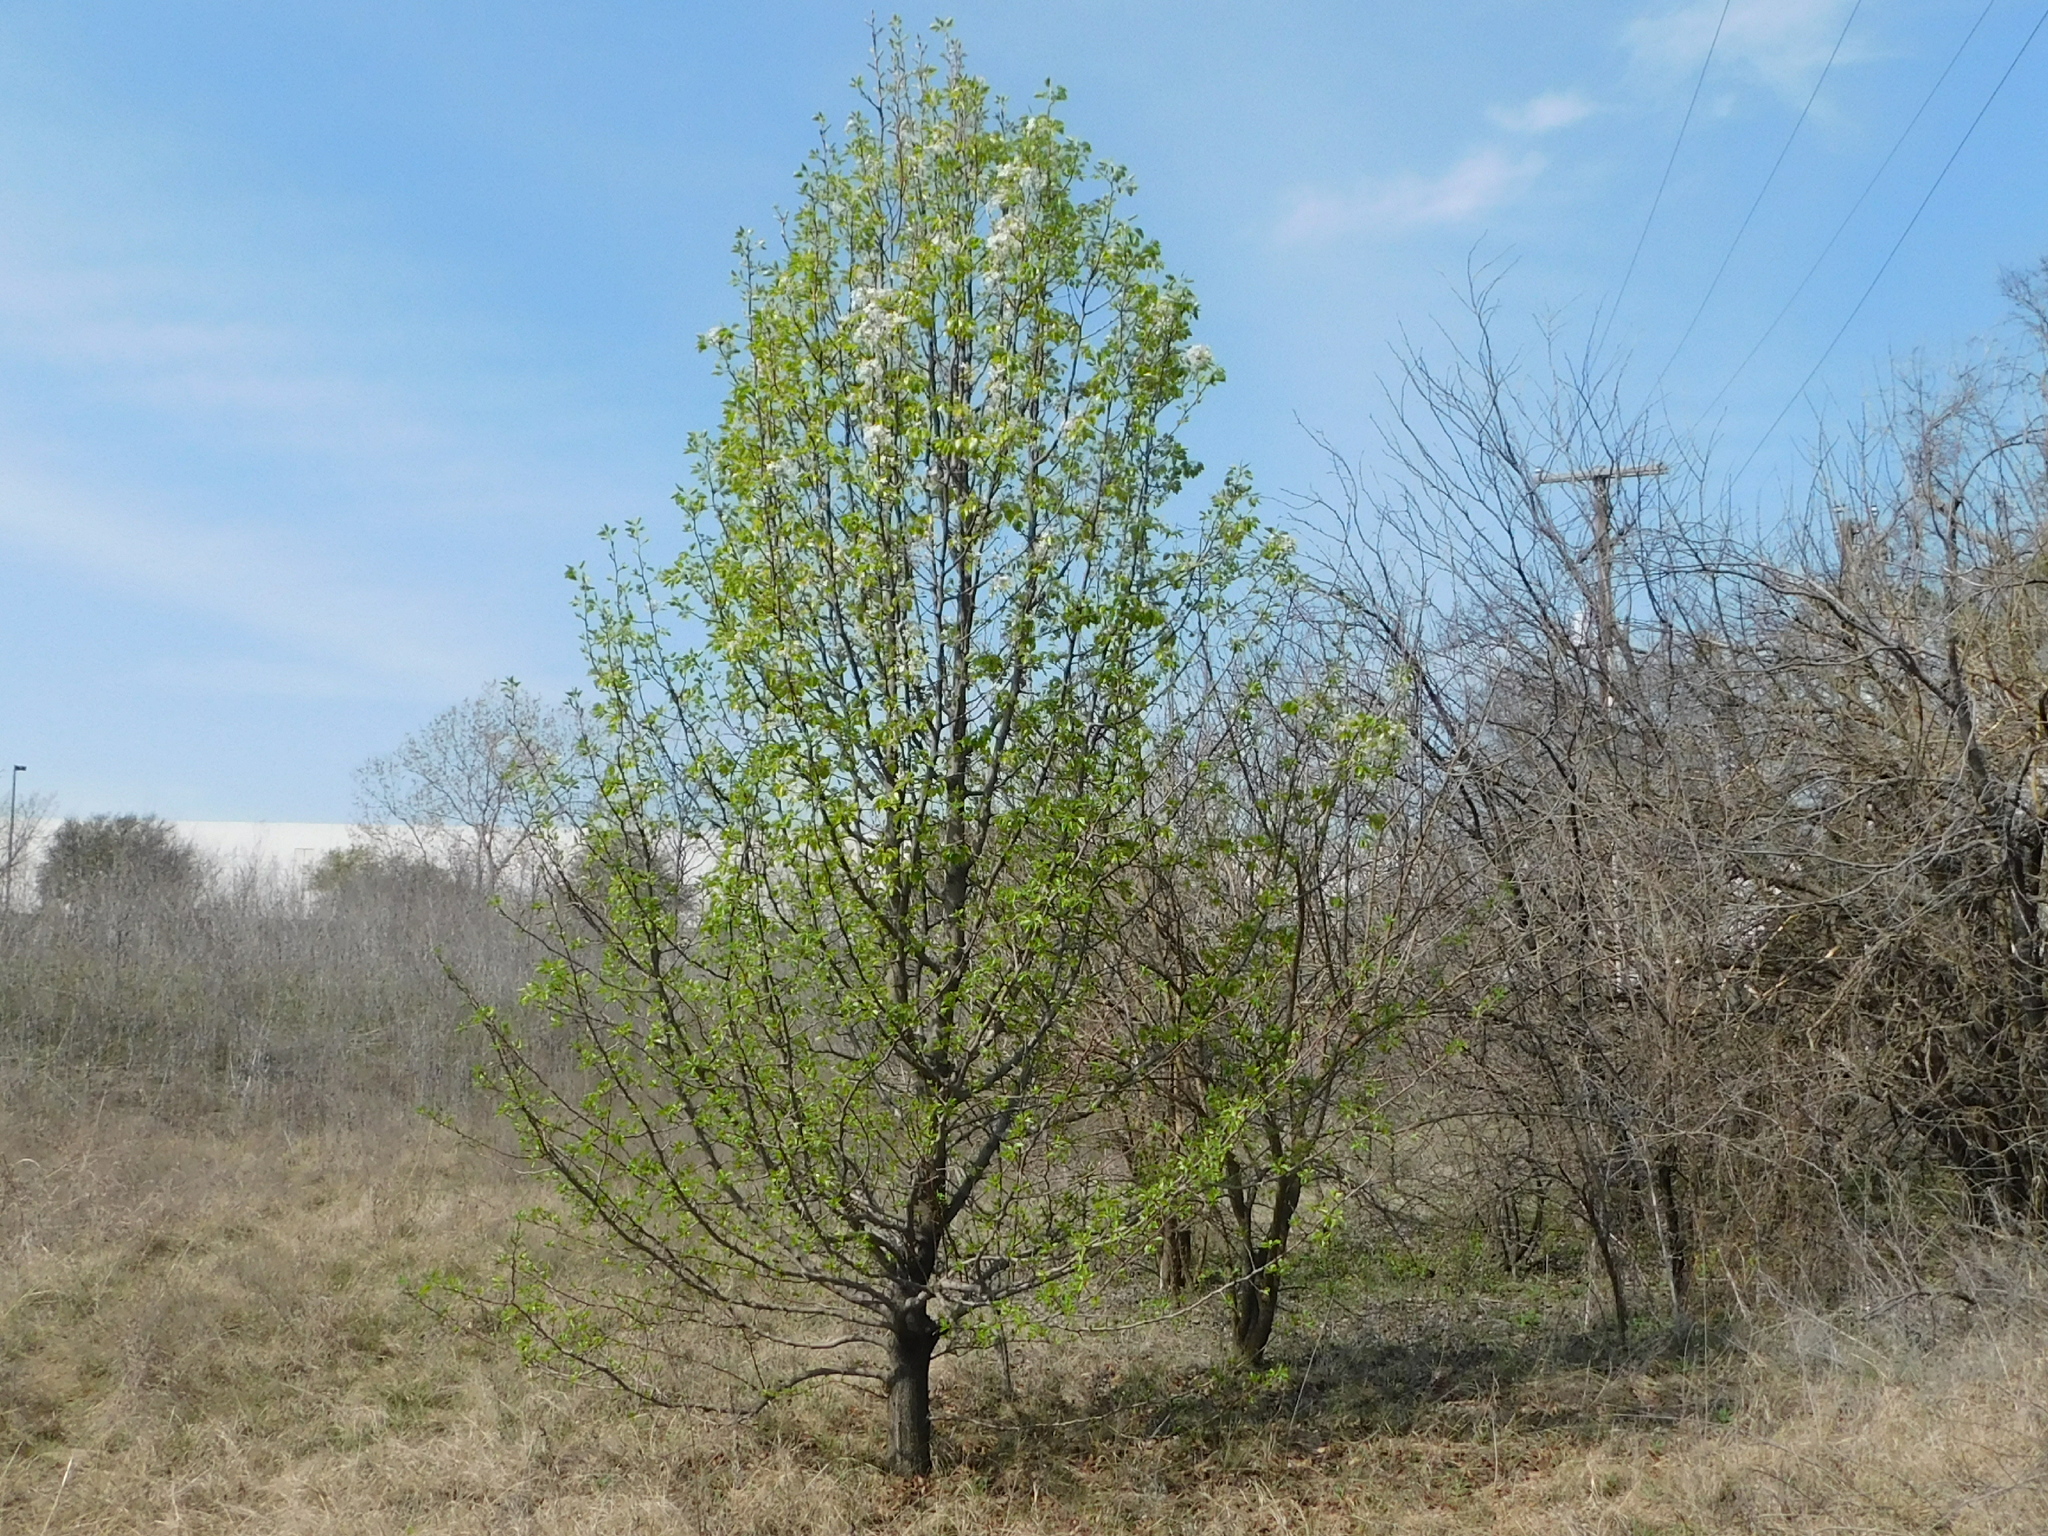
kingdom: Plantae
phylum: Tracheophyta
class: Magnoliopsida
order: Rosales
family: Rosaceae
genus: Pyrus
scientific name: Pyrus calleryana
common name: Callery pear
